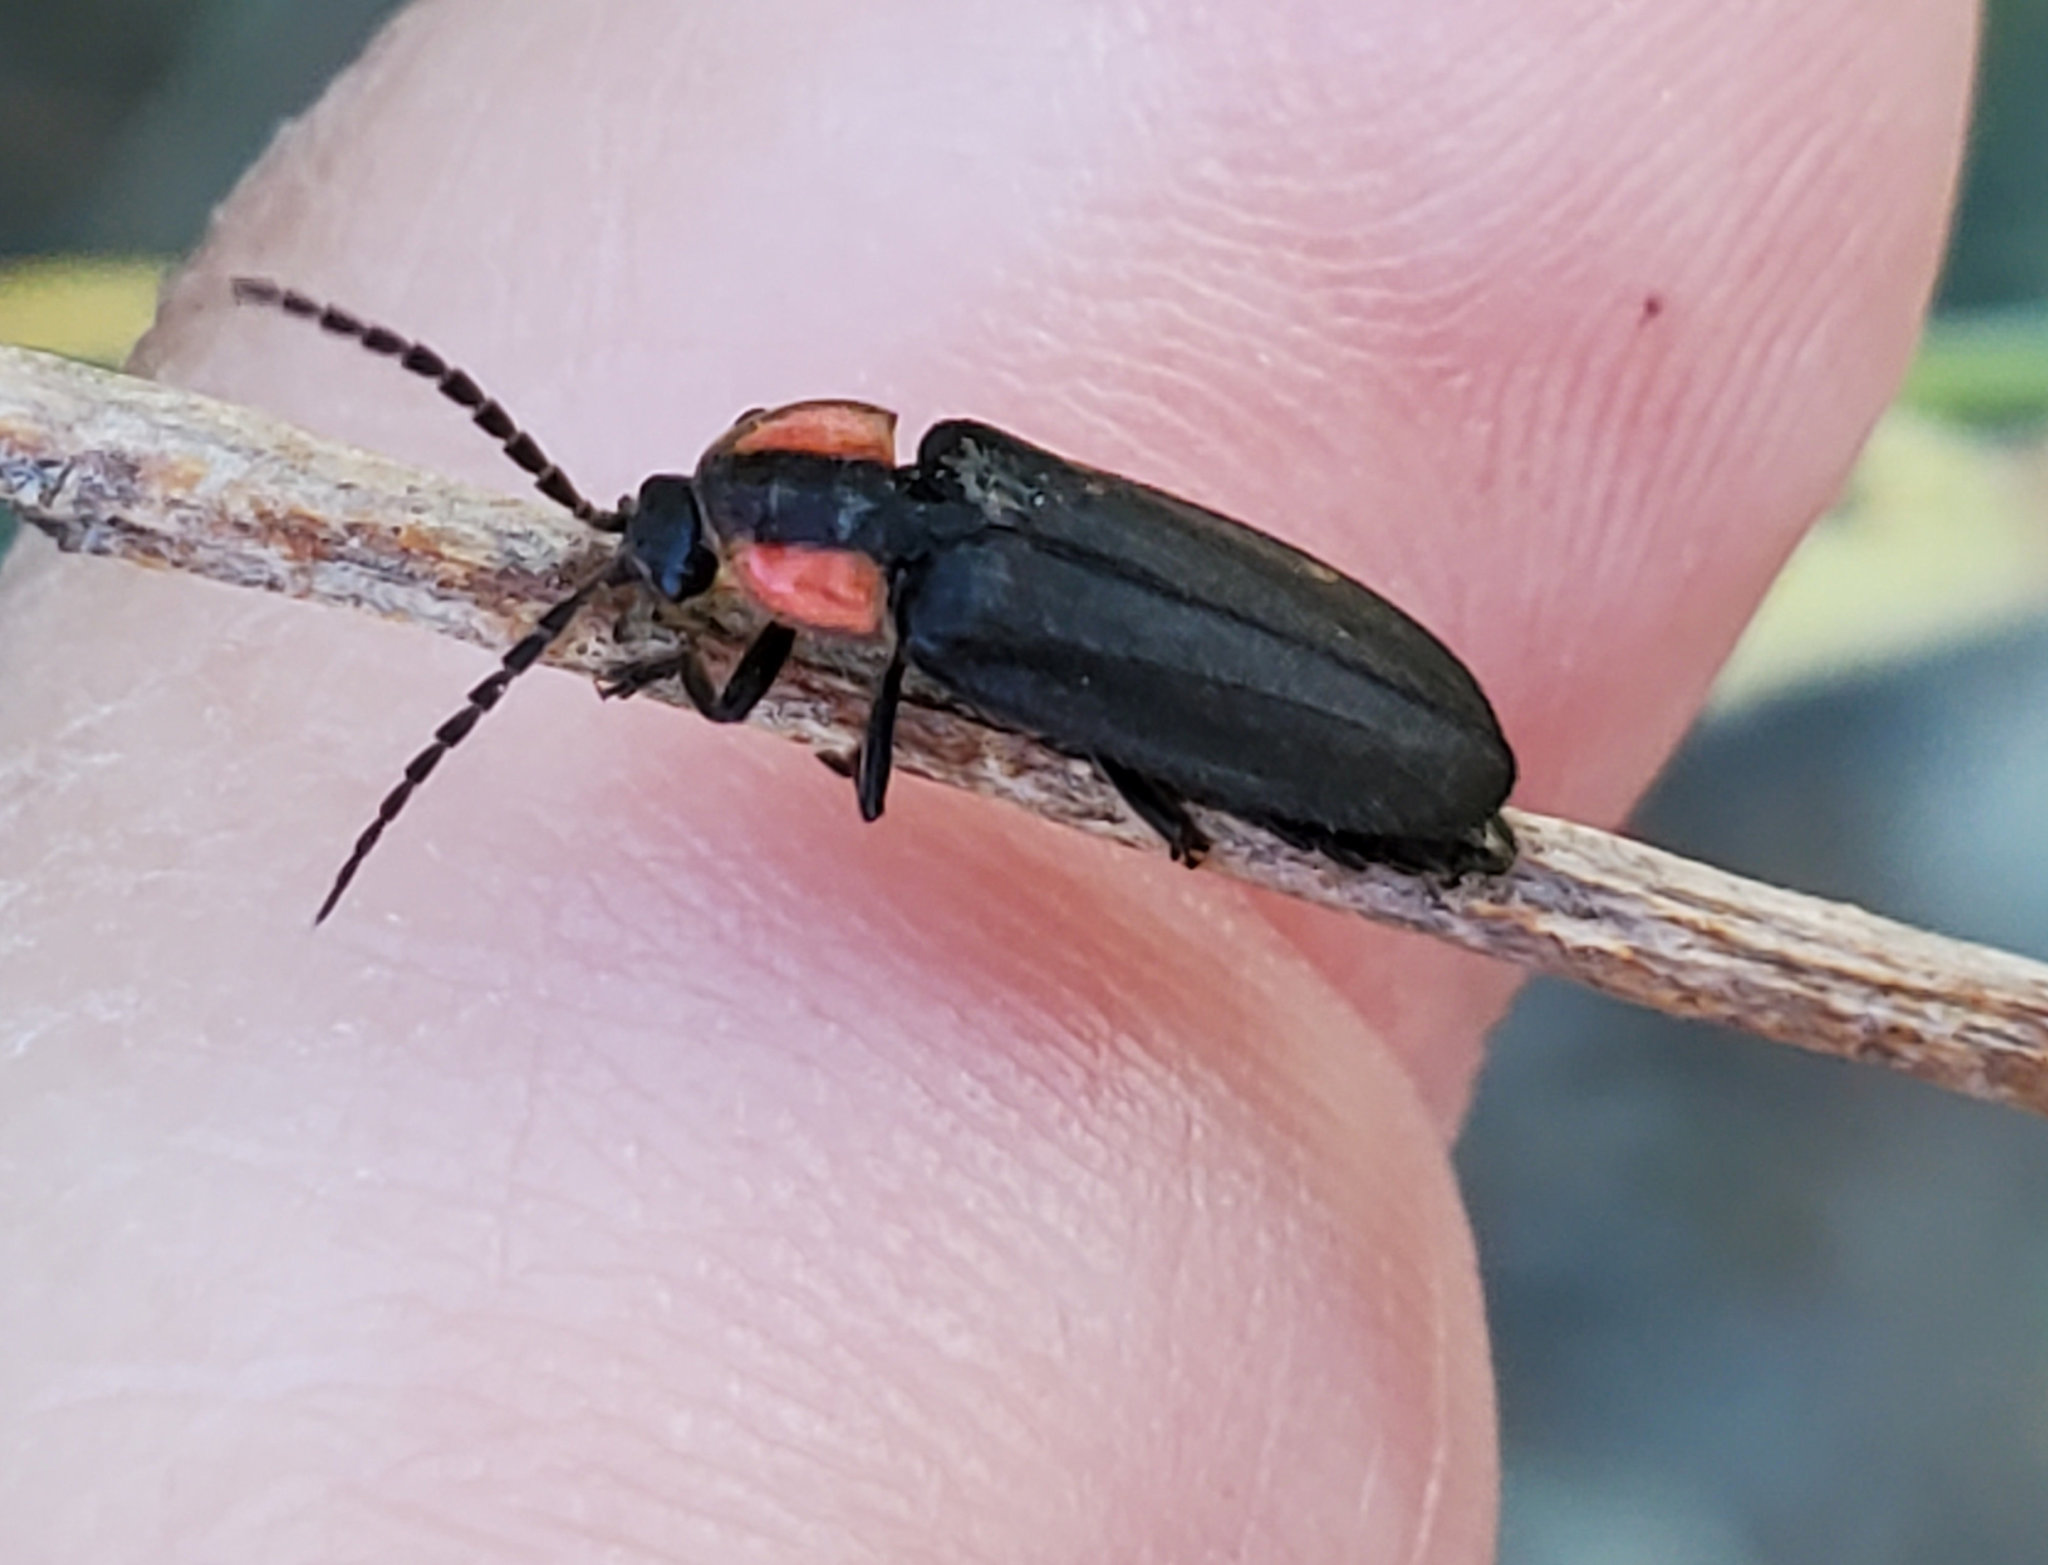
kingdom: Animalia
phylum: Arthropoda
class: Insecta
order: Coleoptera
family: Lampyridae
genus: Pyropyga
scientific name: Pyropyga nigricans
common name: Dark firefly
